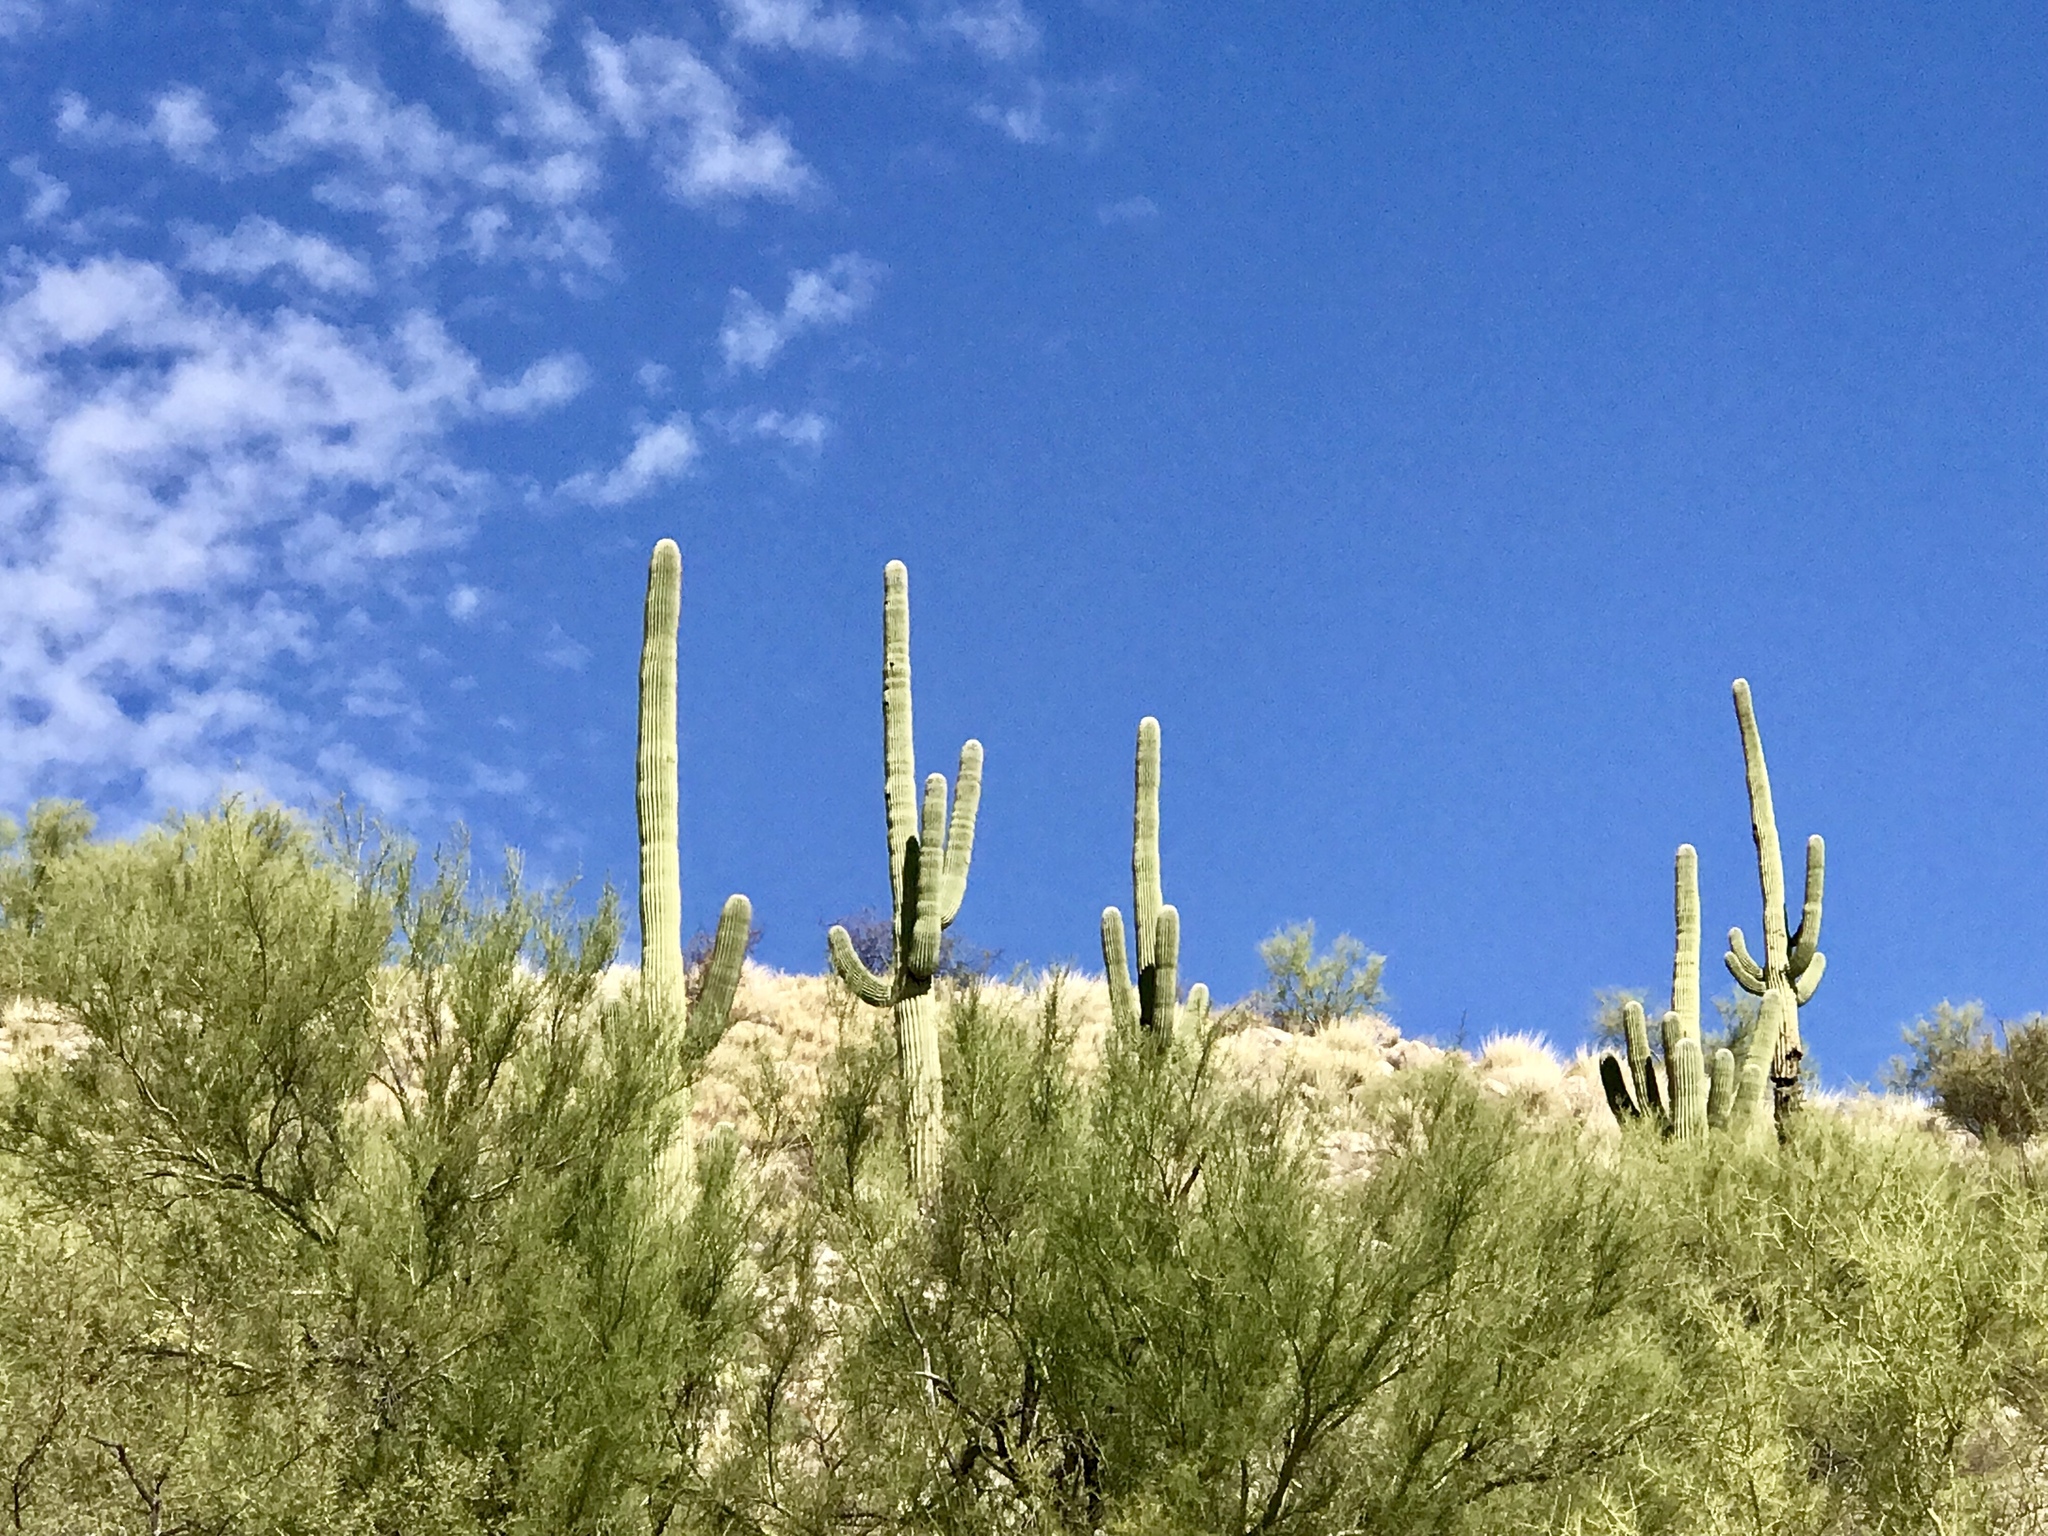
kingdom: Plantae
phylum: Tracheophyta
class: Magnoliopsida
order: Caryophyllales
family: Cactaceae
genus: Carnegiea
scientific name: Carnegiea gigantea
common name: Saguaro
